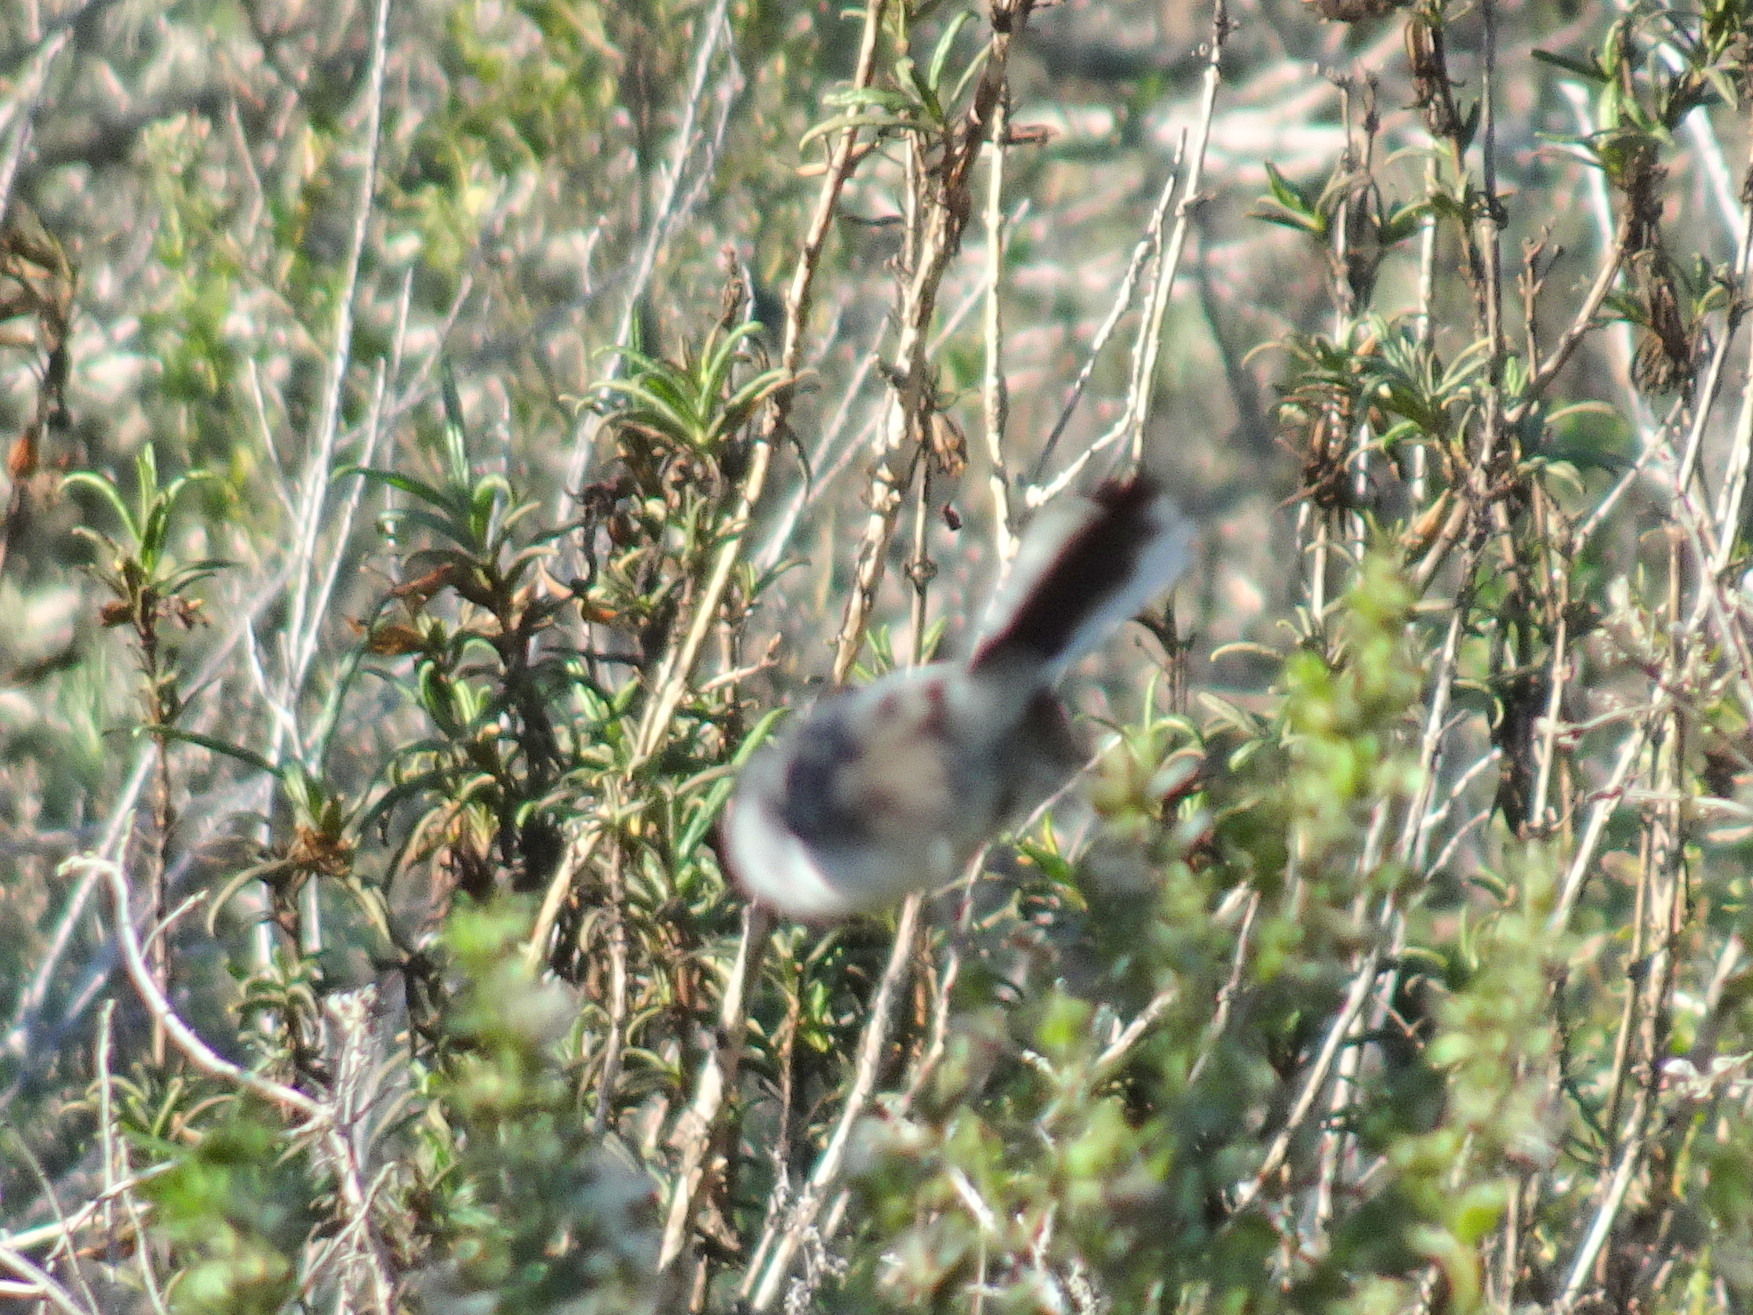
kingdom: Animalia
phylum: Chordata
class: Aves
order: Passeriformes
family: Polioptilidae
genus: Polioptila
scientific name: Polioptila caerulea
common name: Blue-gray gnatcatcher
